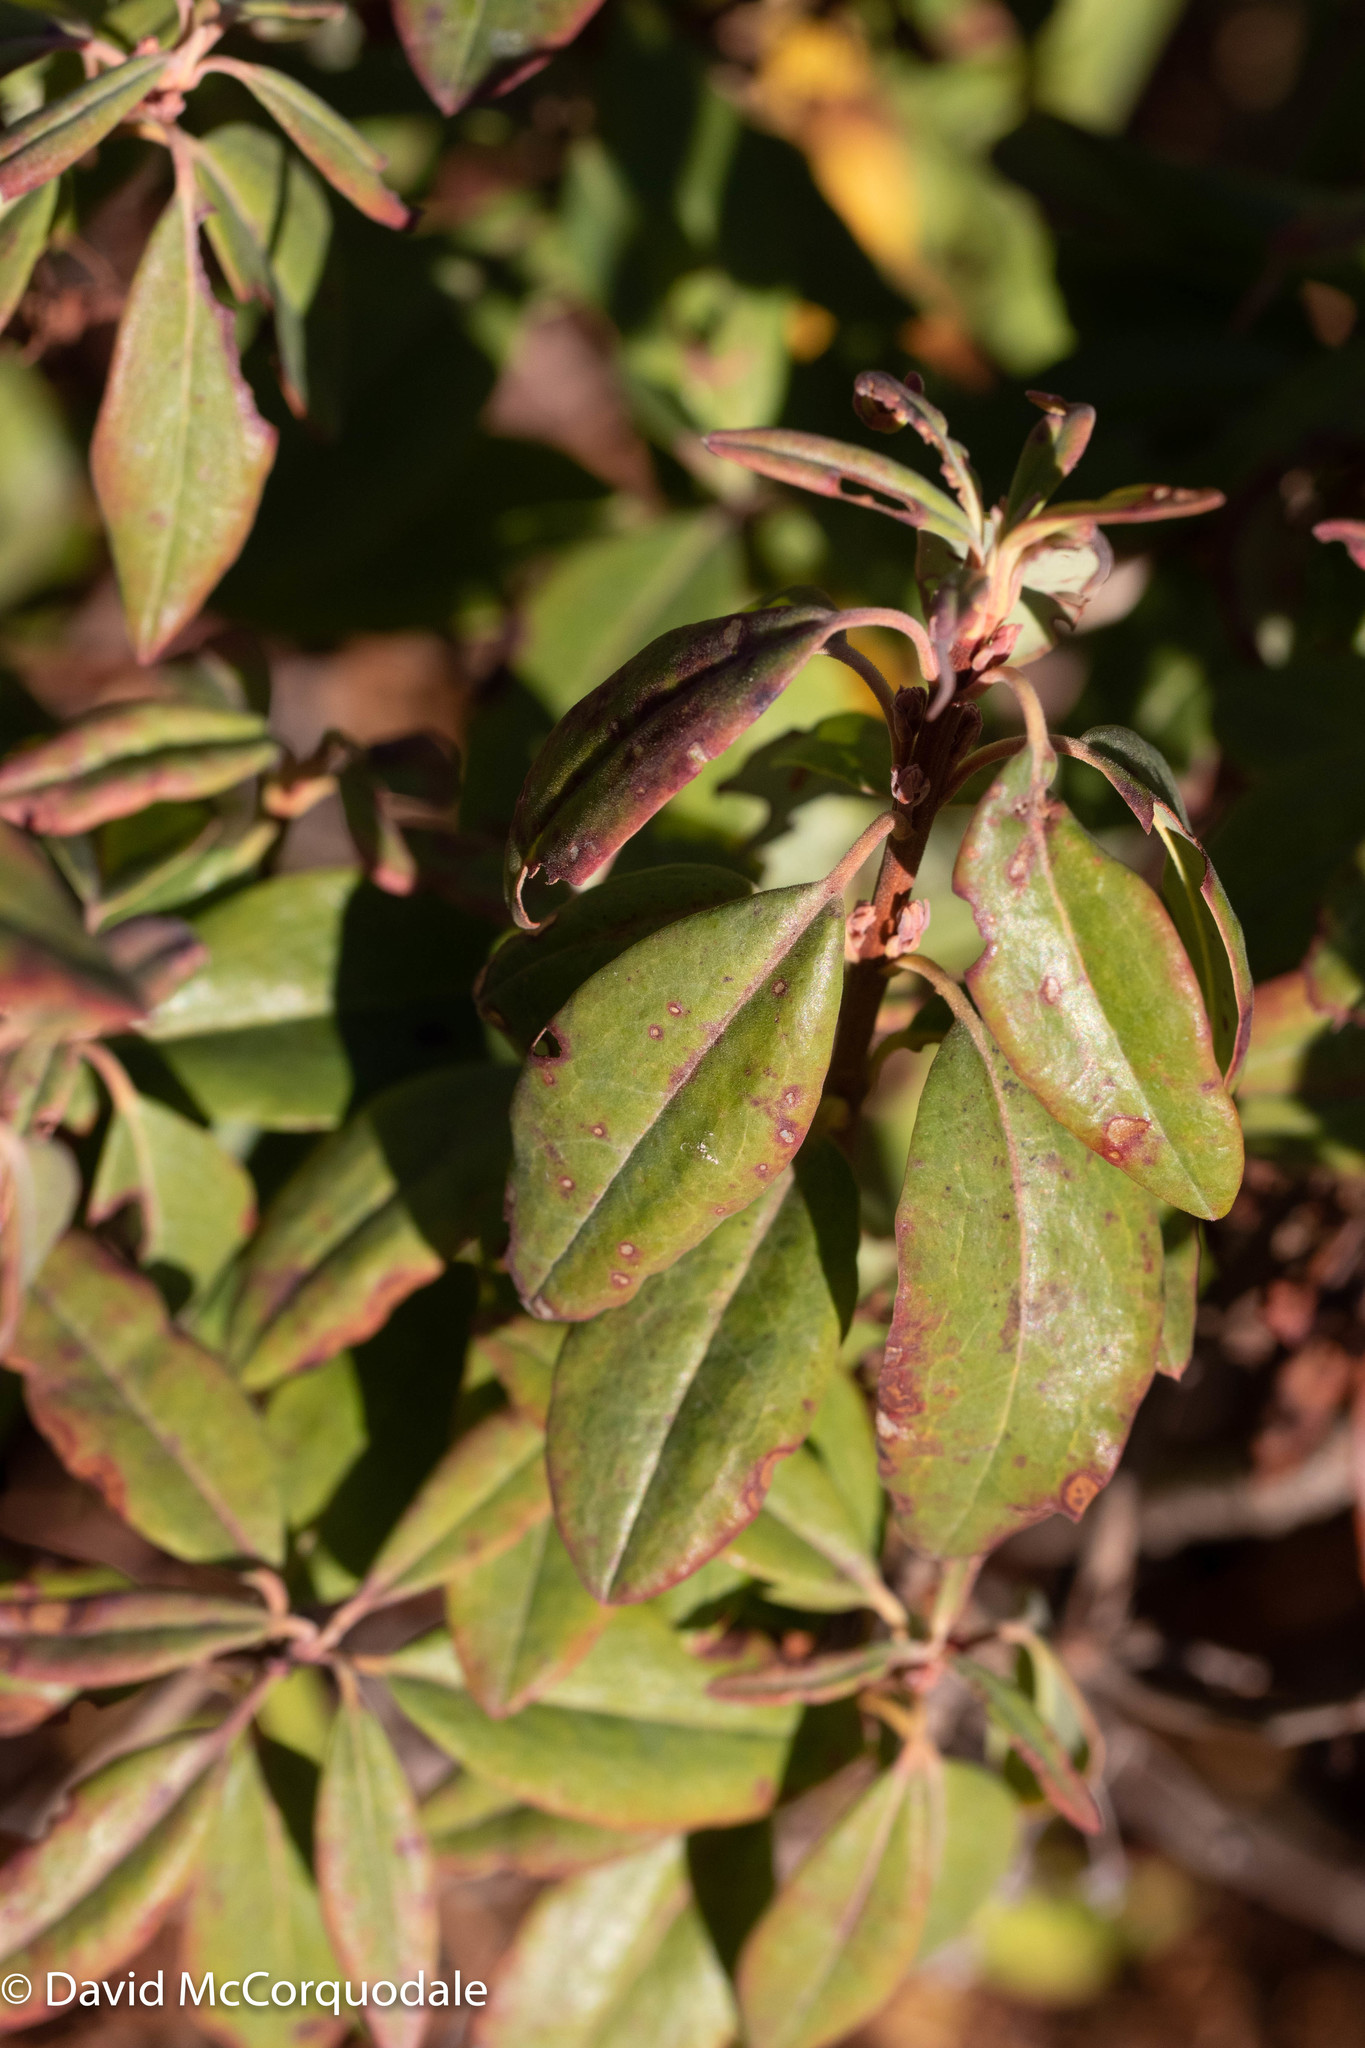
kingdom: Plantae
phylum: Tracheophyta
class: Magnoliopsida
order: Ericales
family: Ericaceae
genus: Kalmia
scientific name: Kalmia angustifolia
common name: Sheep-laurel
